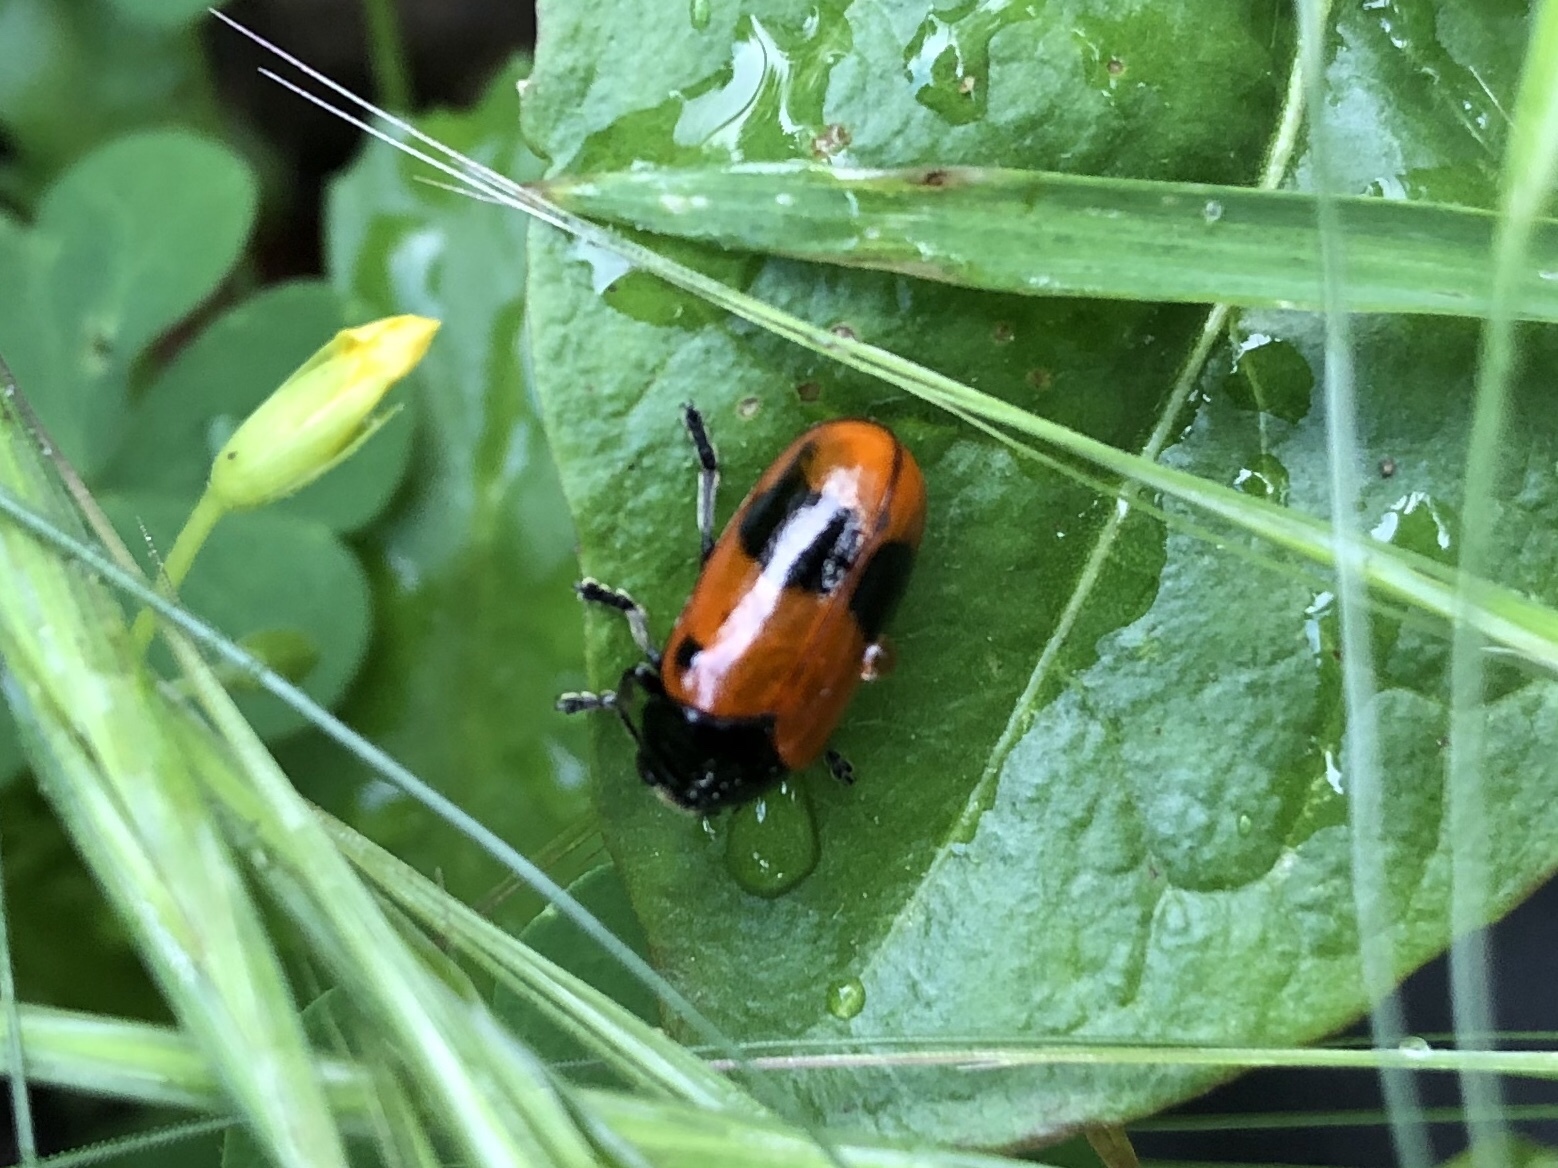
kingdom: Animalia
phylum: Arthropoda
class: Insecta
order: Coleoptera
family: Chrysomelidae
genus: Clytra
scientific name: Clytra laeviuscula
